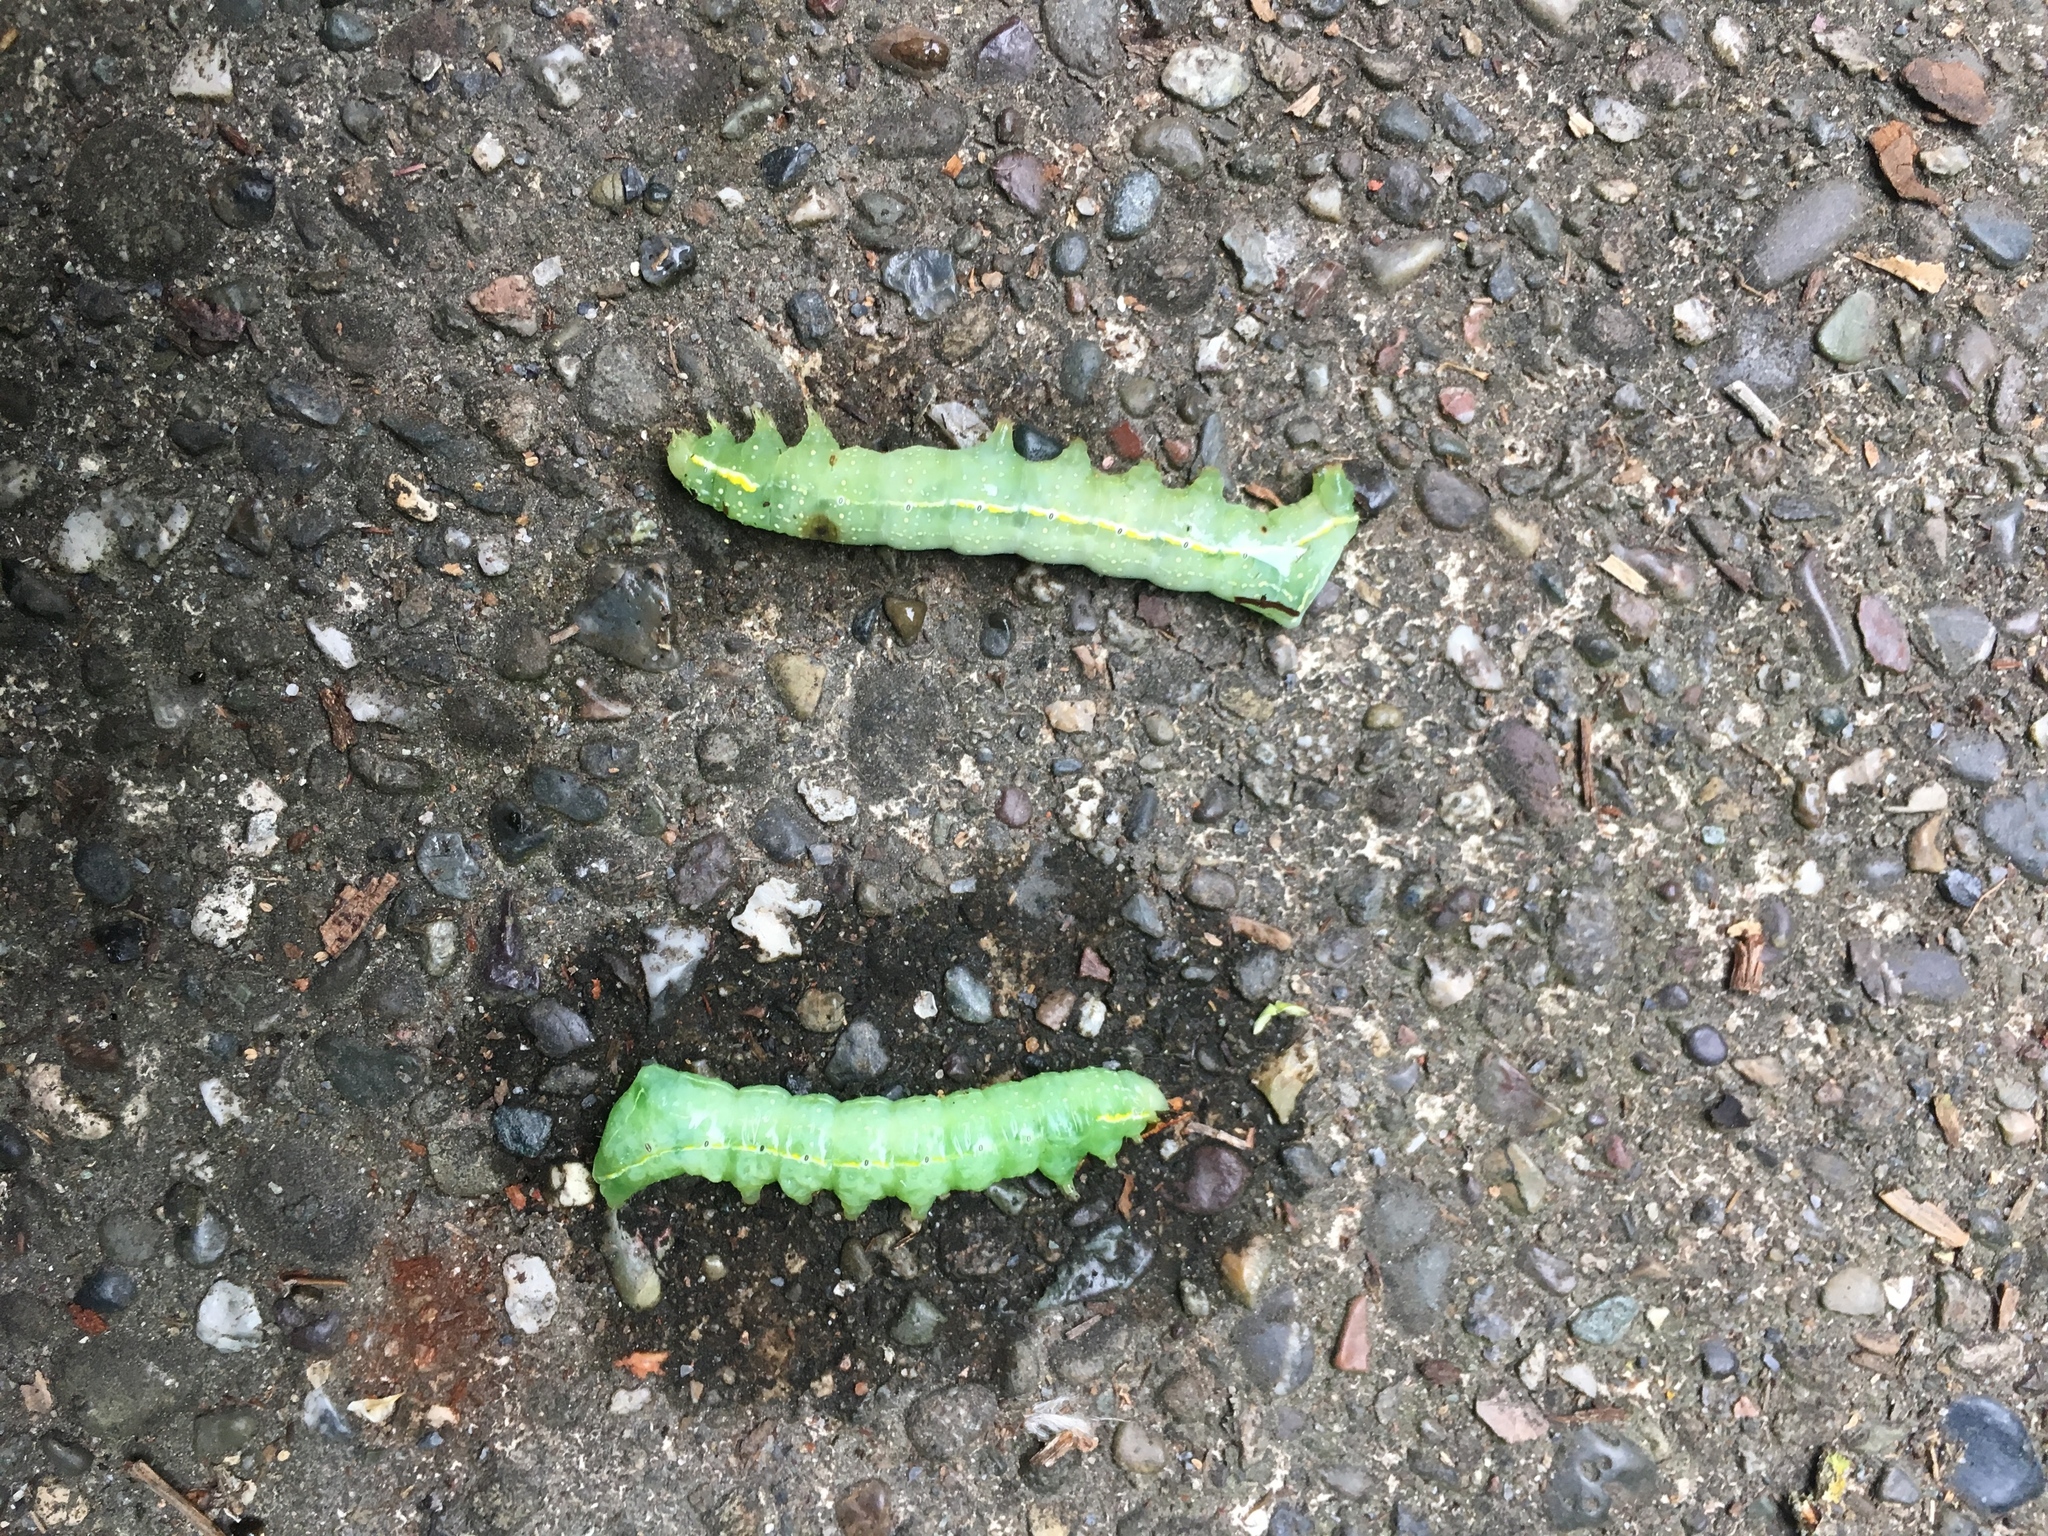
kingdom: Animalia
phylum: Arthropoda
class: Insecta
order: Lepidoptera
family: Noctuidae
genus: Amphipyra
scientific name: Amphipyra pyramidoides
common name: American copper underwing
